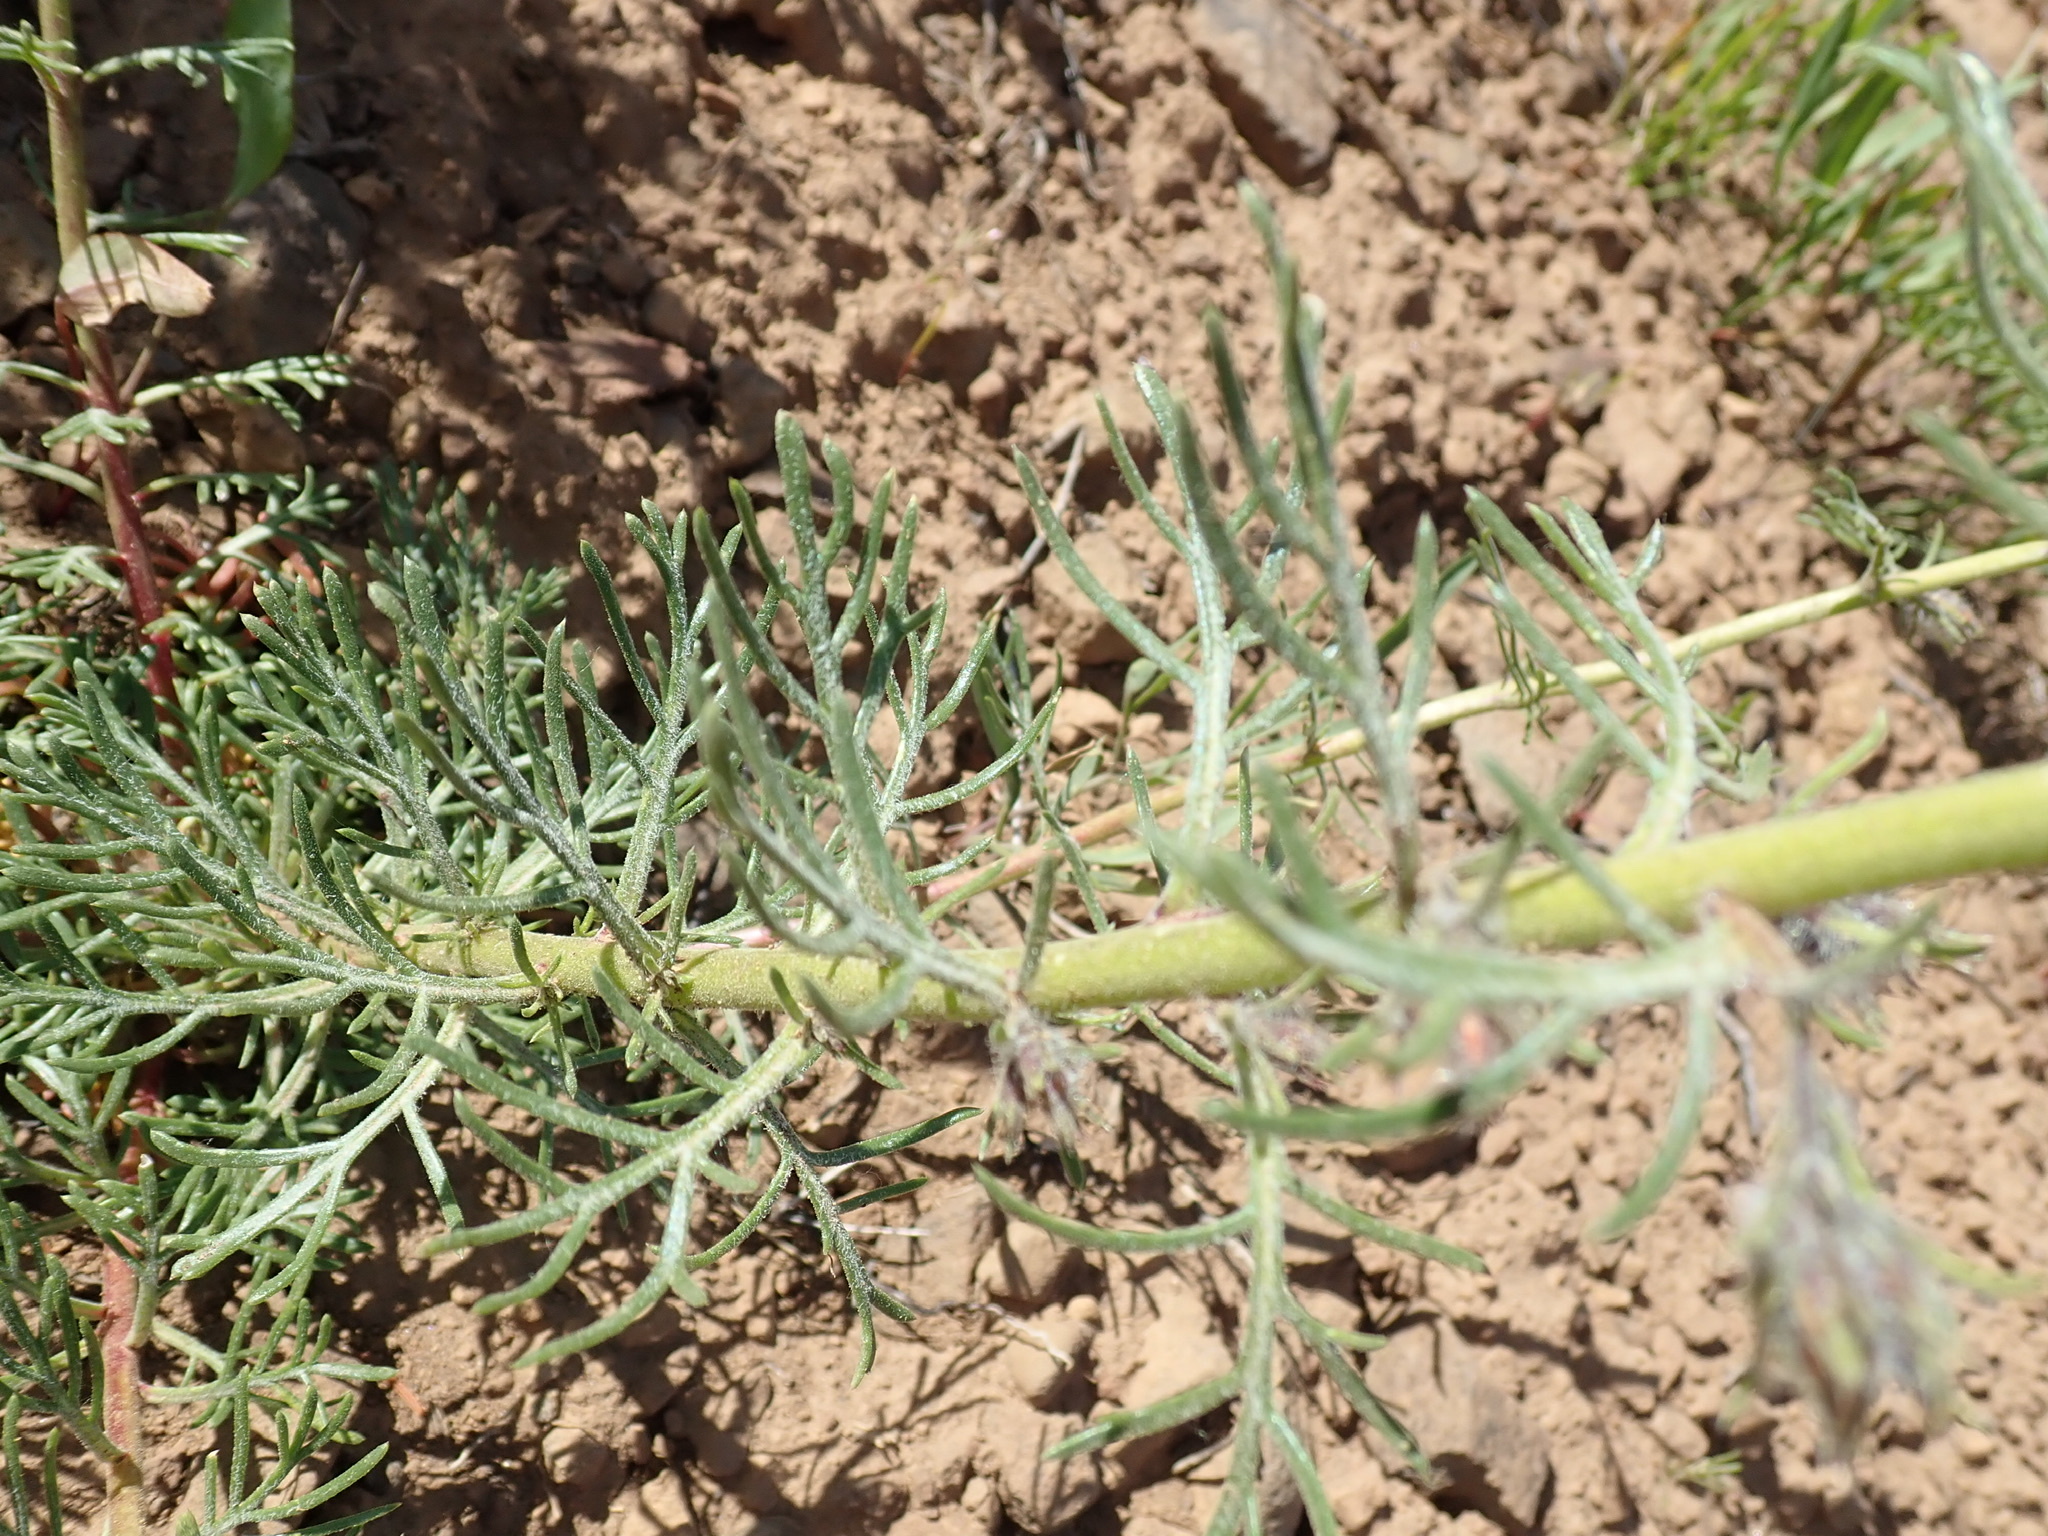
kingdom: Plantae
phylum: Tracheophyta
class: Magnoliopsida
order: Ericales
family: Polemoniaceae
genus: Ipomopsis
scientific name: Ipomopsis aggregata
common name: Scarlet gilia
